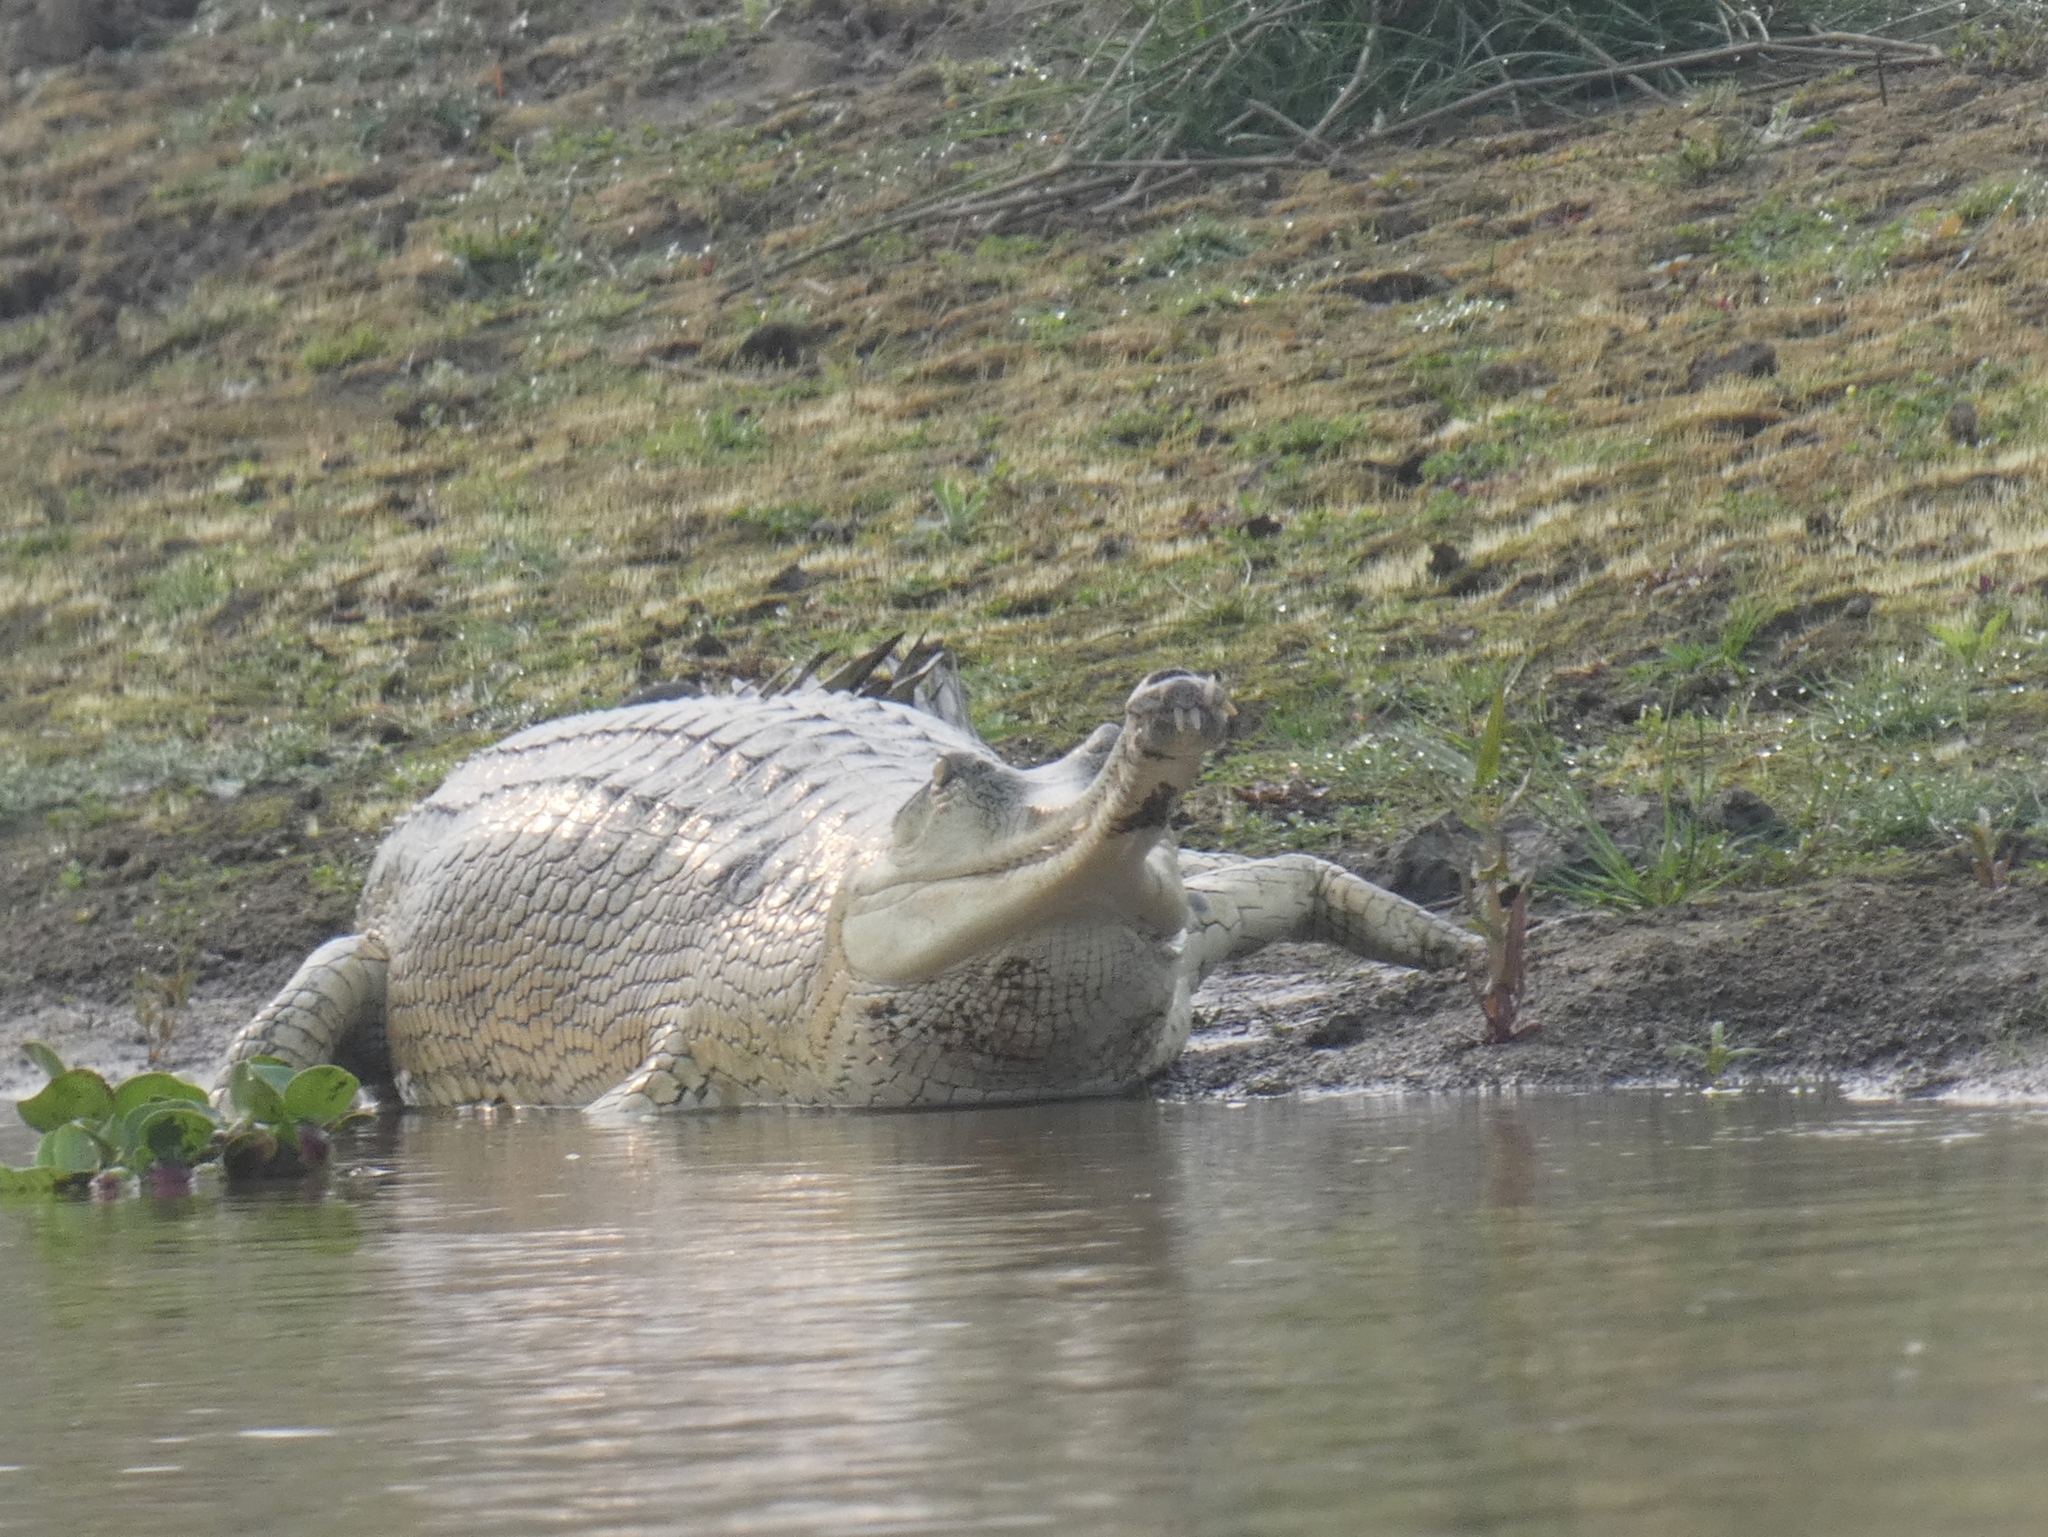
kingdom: Animalia
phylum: Chordata
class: Crocodylia
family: Gavialidae
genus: Gavialis
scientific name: Gavialis gangeticus
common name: Gharial
